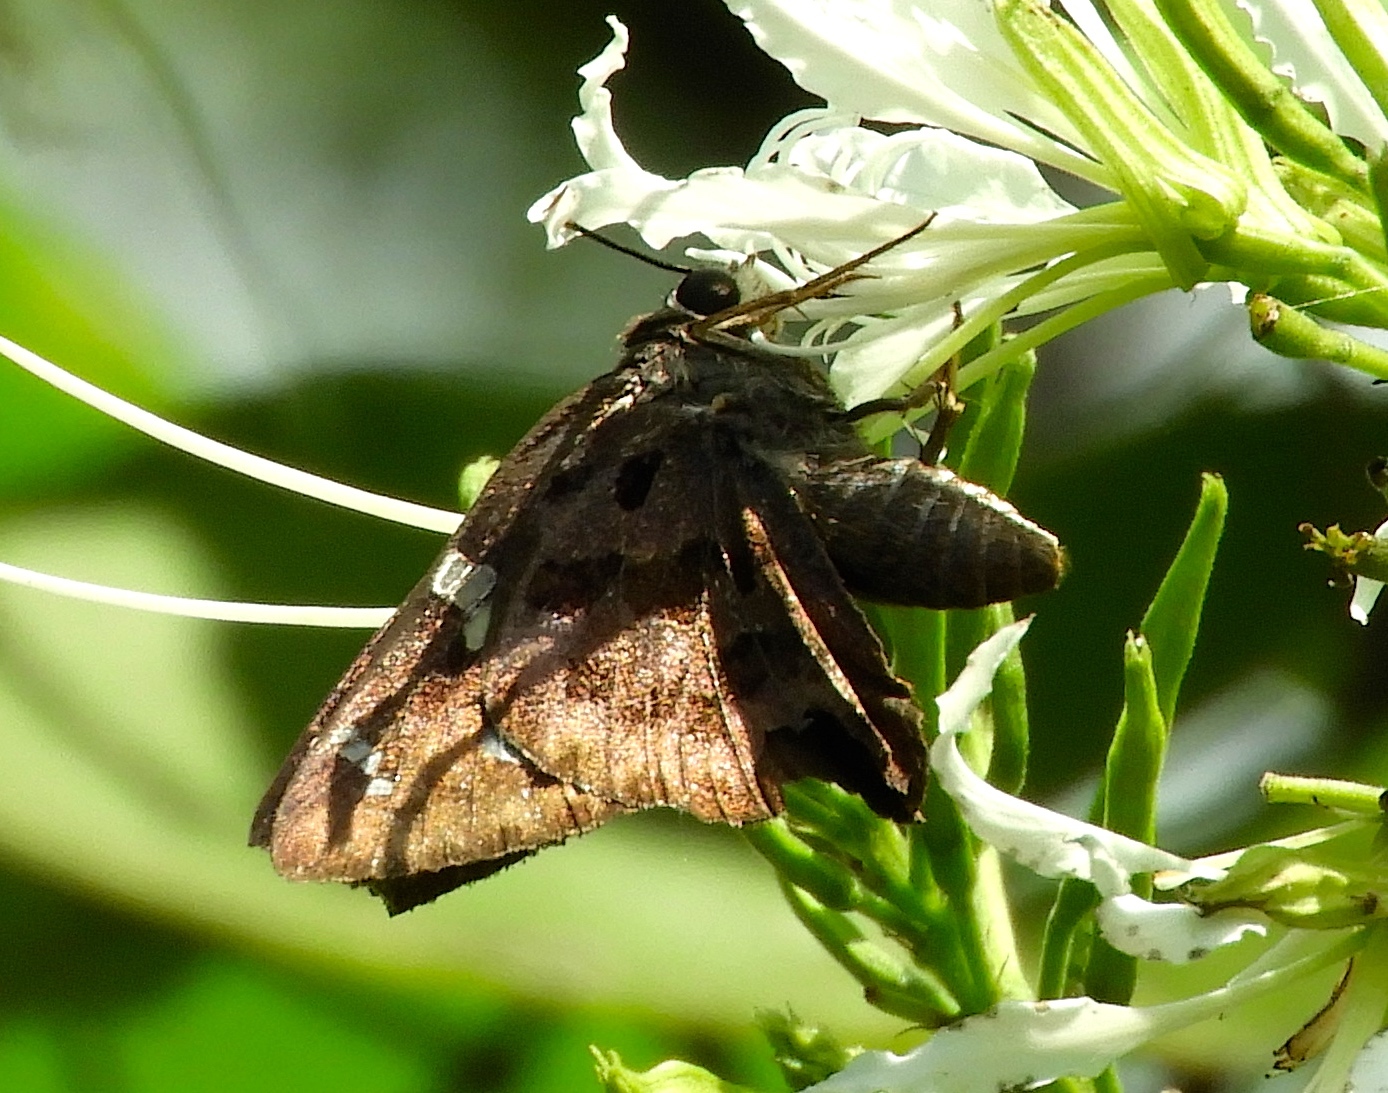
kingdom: Animalia
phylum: Arthropoda
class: Insecta
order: Lepidoptera
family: Hesperiidae
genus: Thorybes
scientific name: Thorybes
